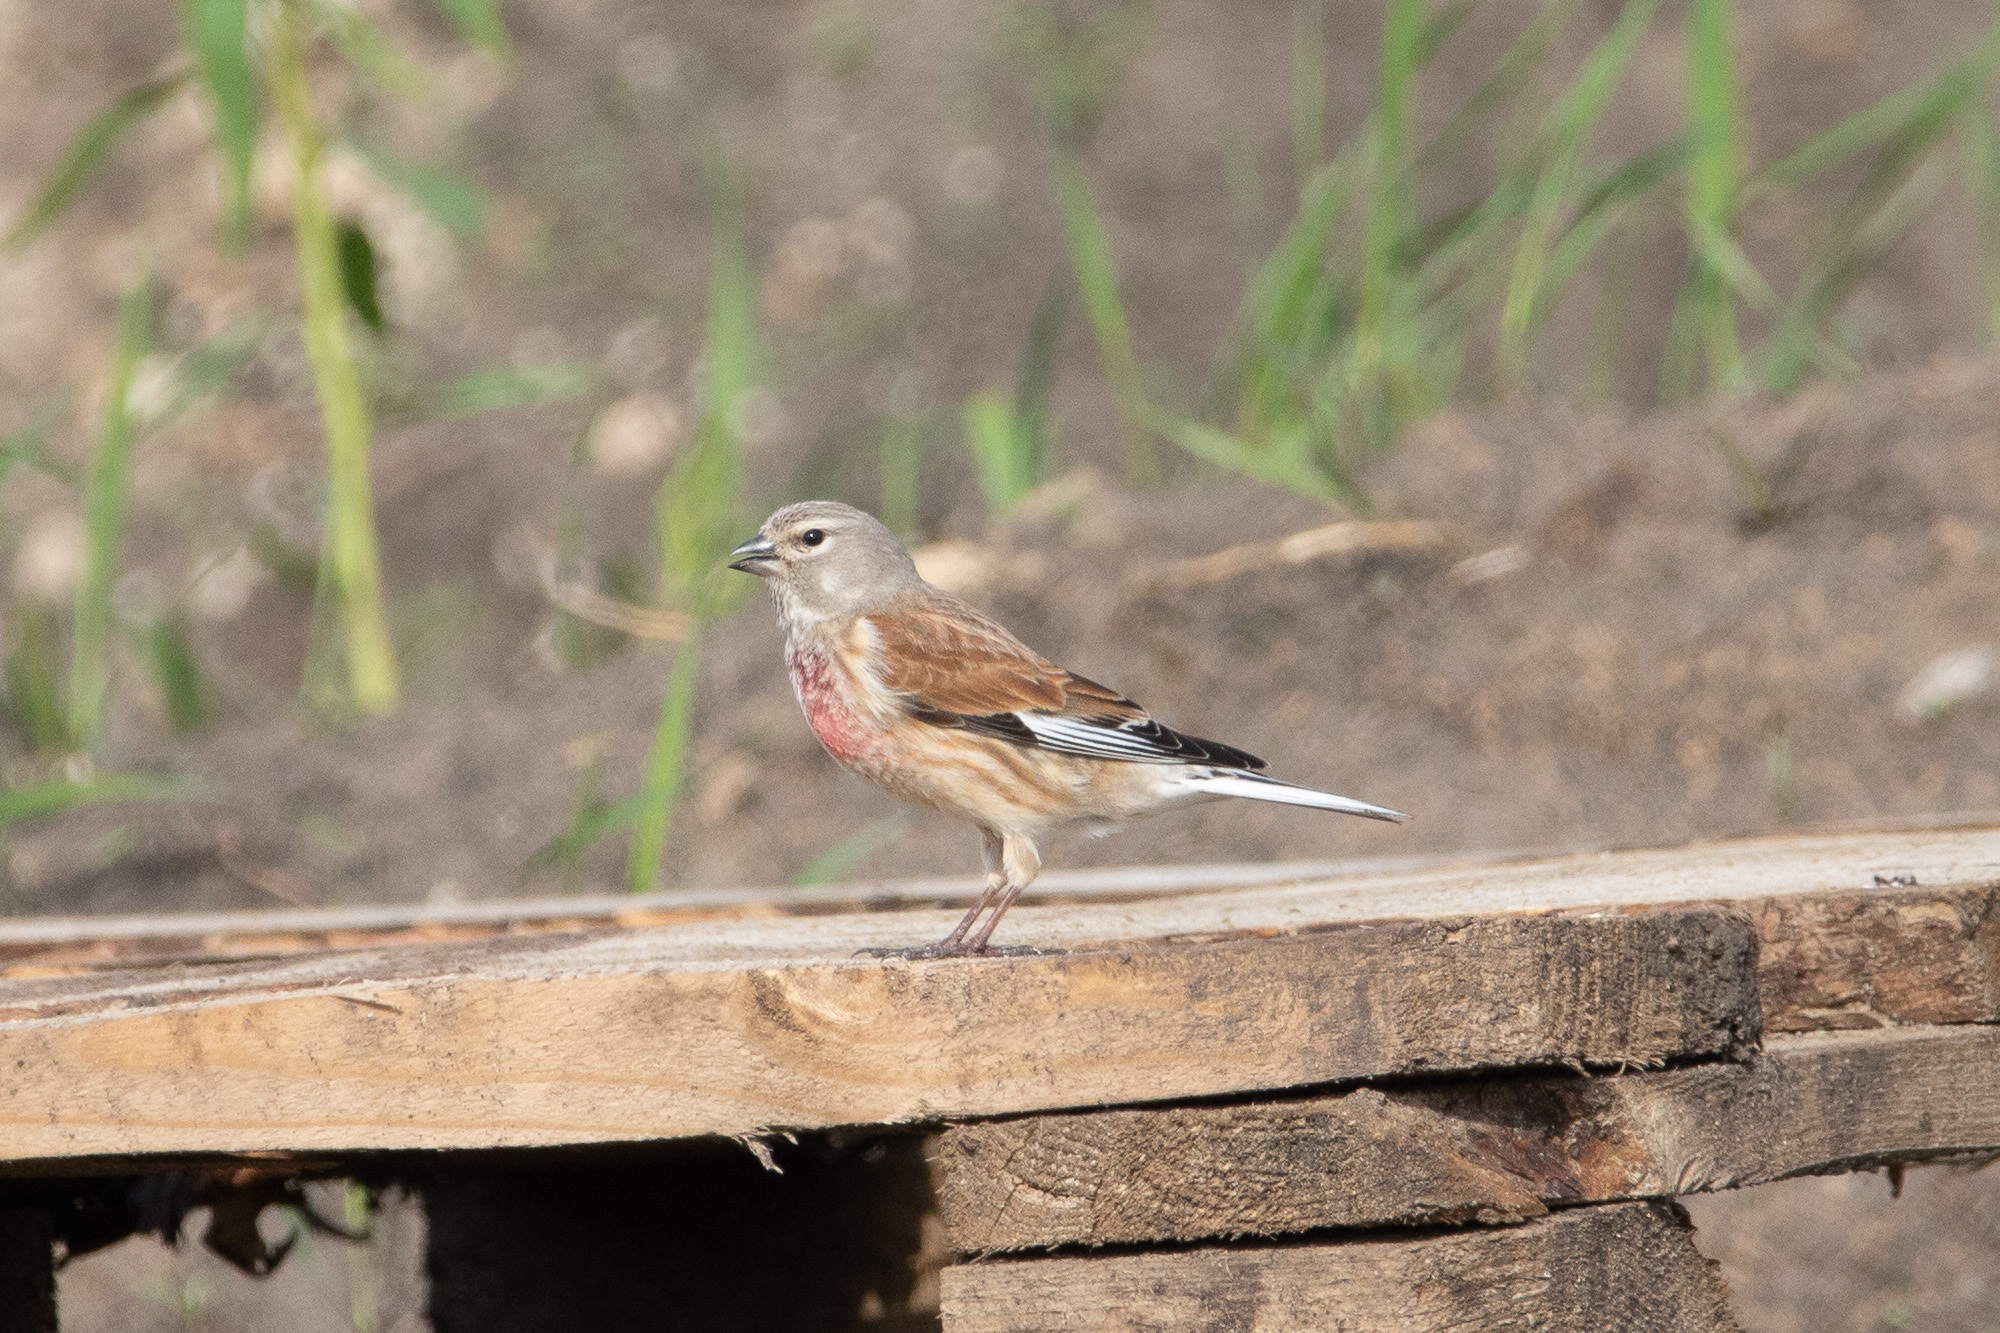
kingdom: Animalia
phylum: Chordata
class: Aves
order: Passeriformes
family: Fringillidae
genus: Linaria
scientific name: Linaria cannabina
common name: Common linnet
